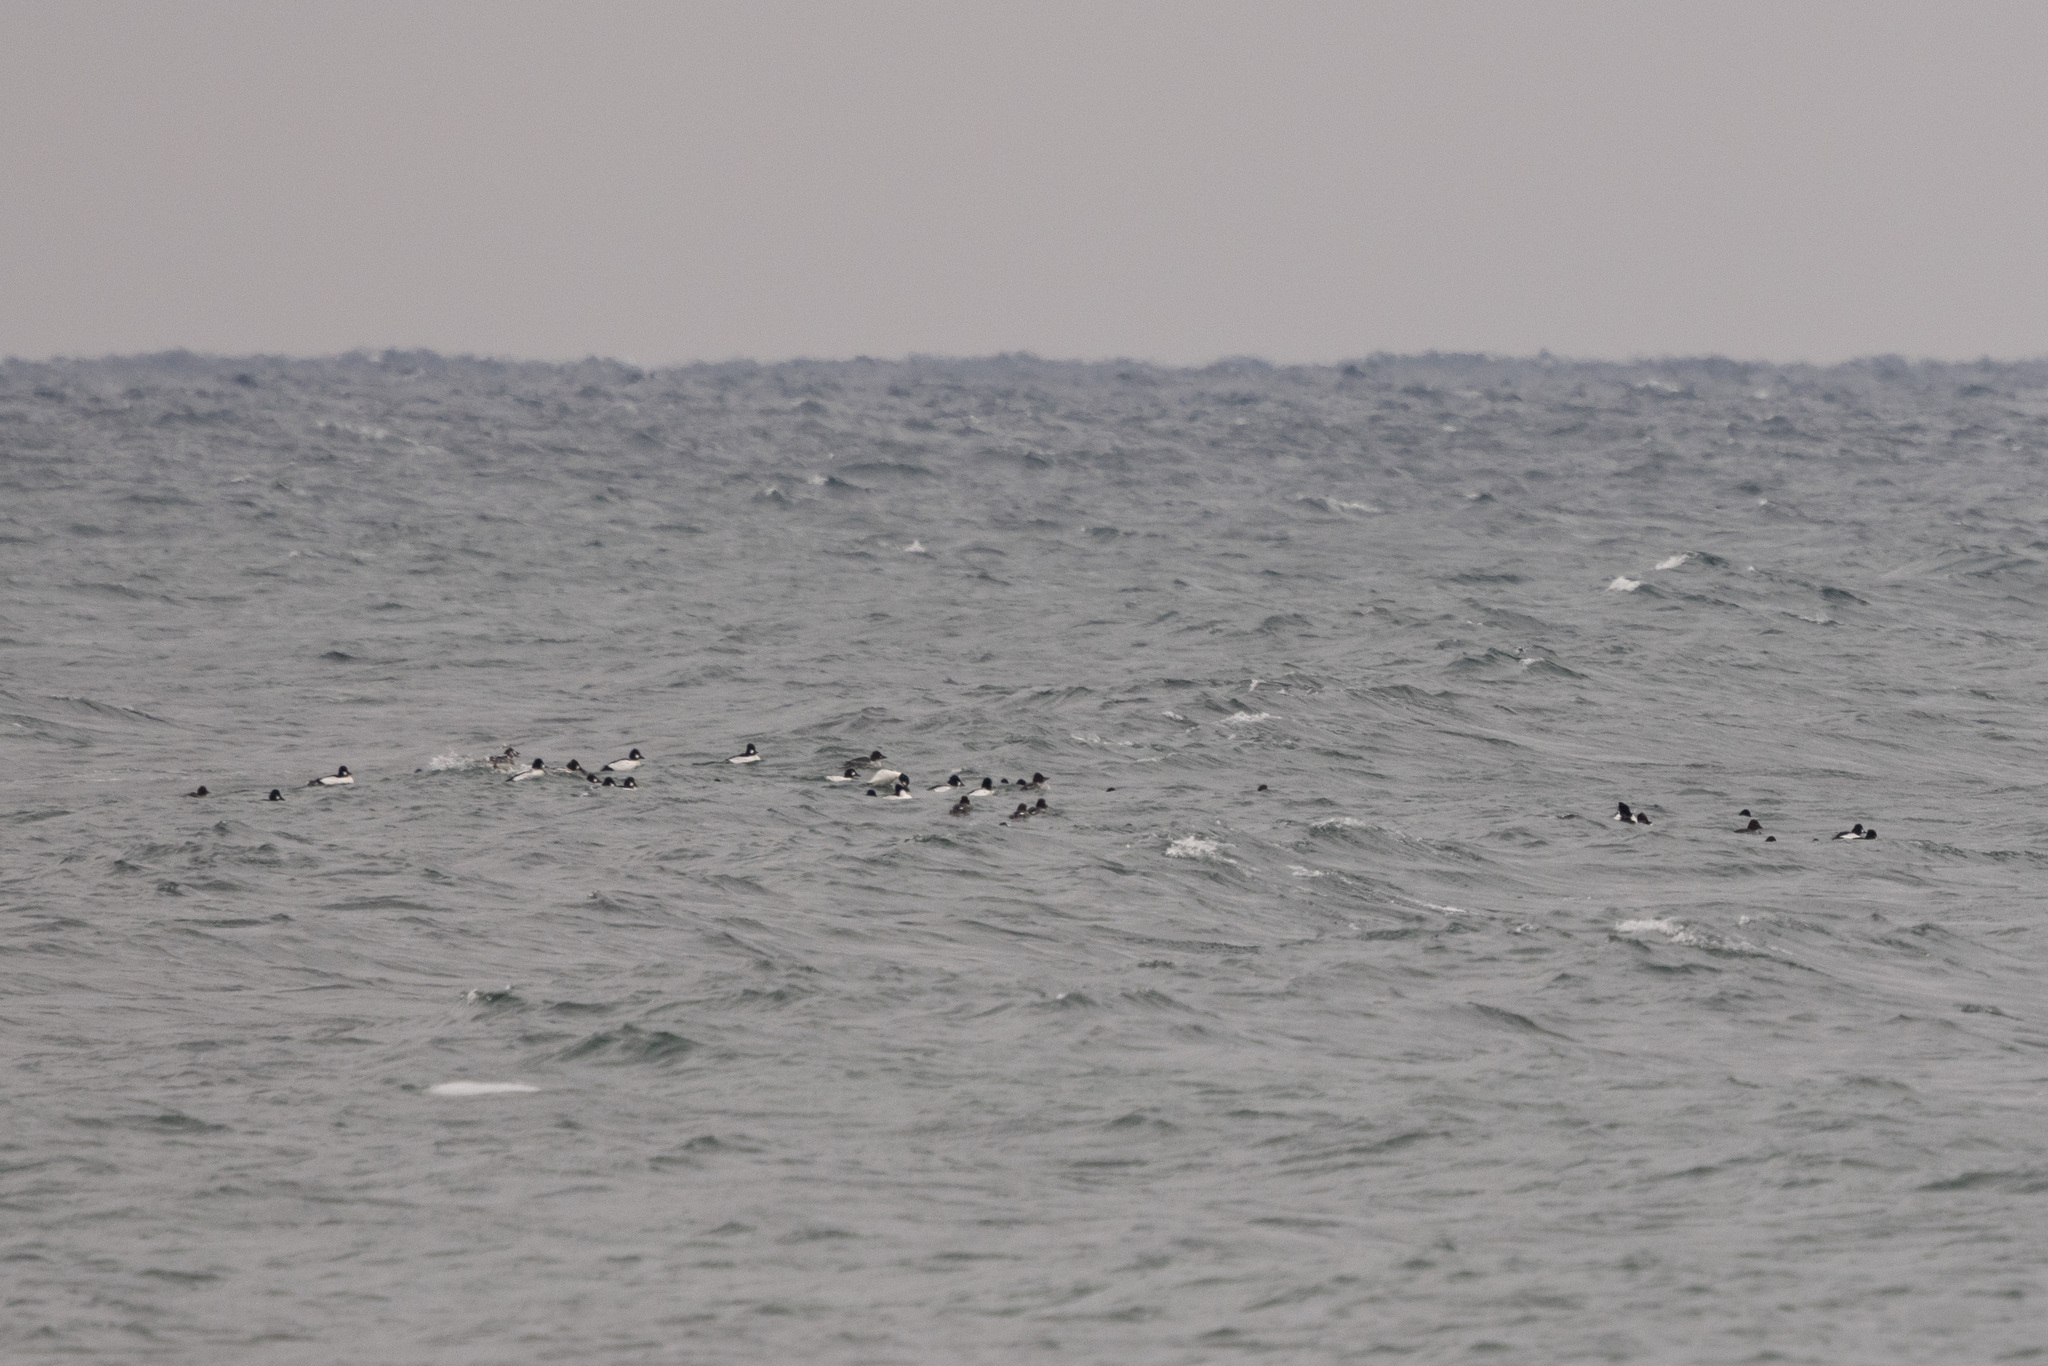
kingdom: Animalia
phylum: Chordata
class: Aves
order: Anseriformes
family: Anatidae
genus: Bucephala
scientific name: Bucephala clangula
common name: Common goldeneye
